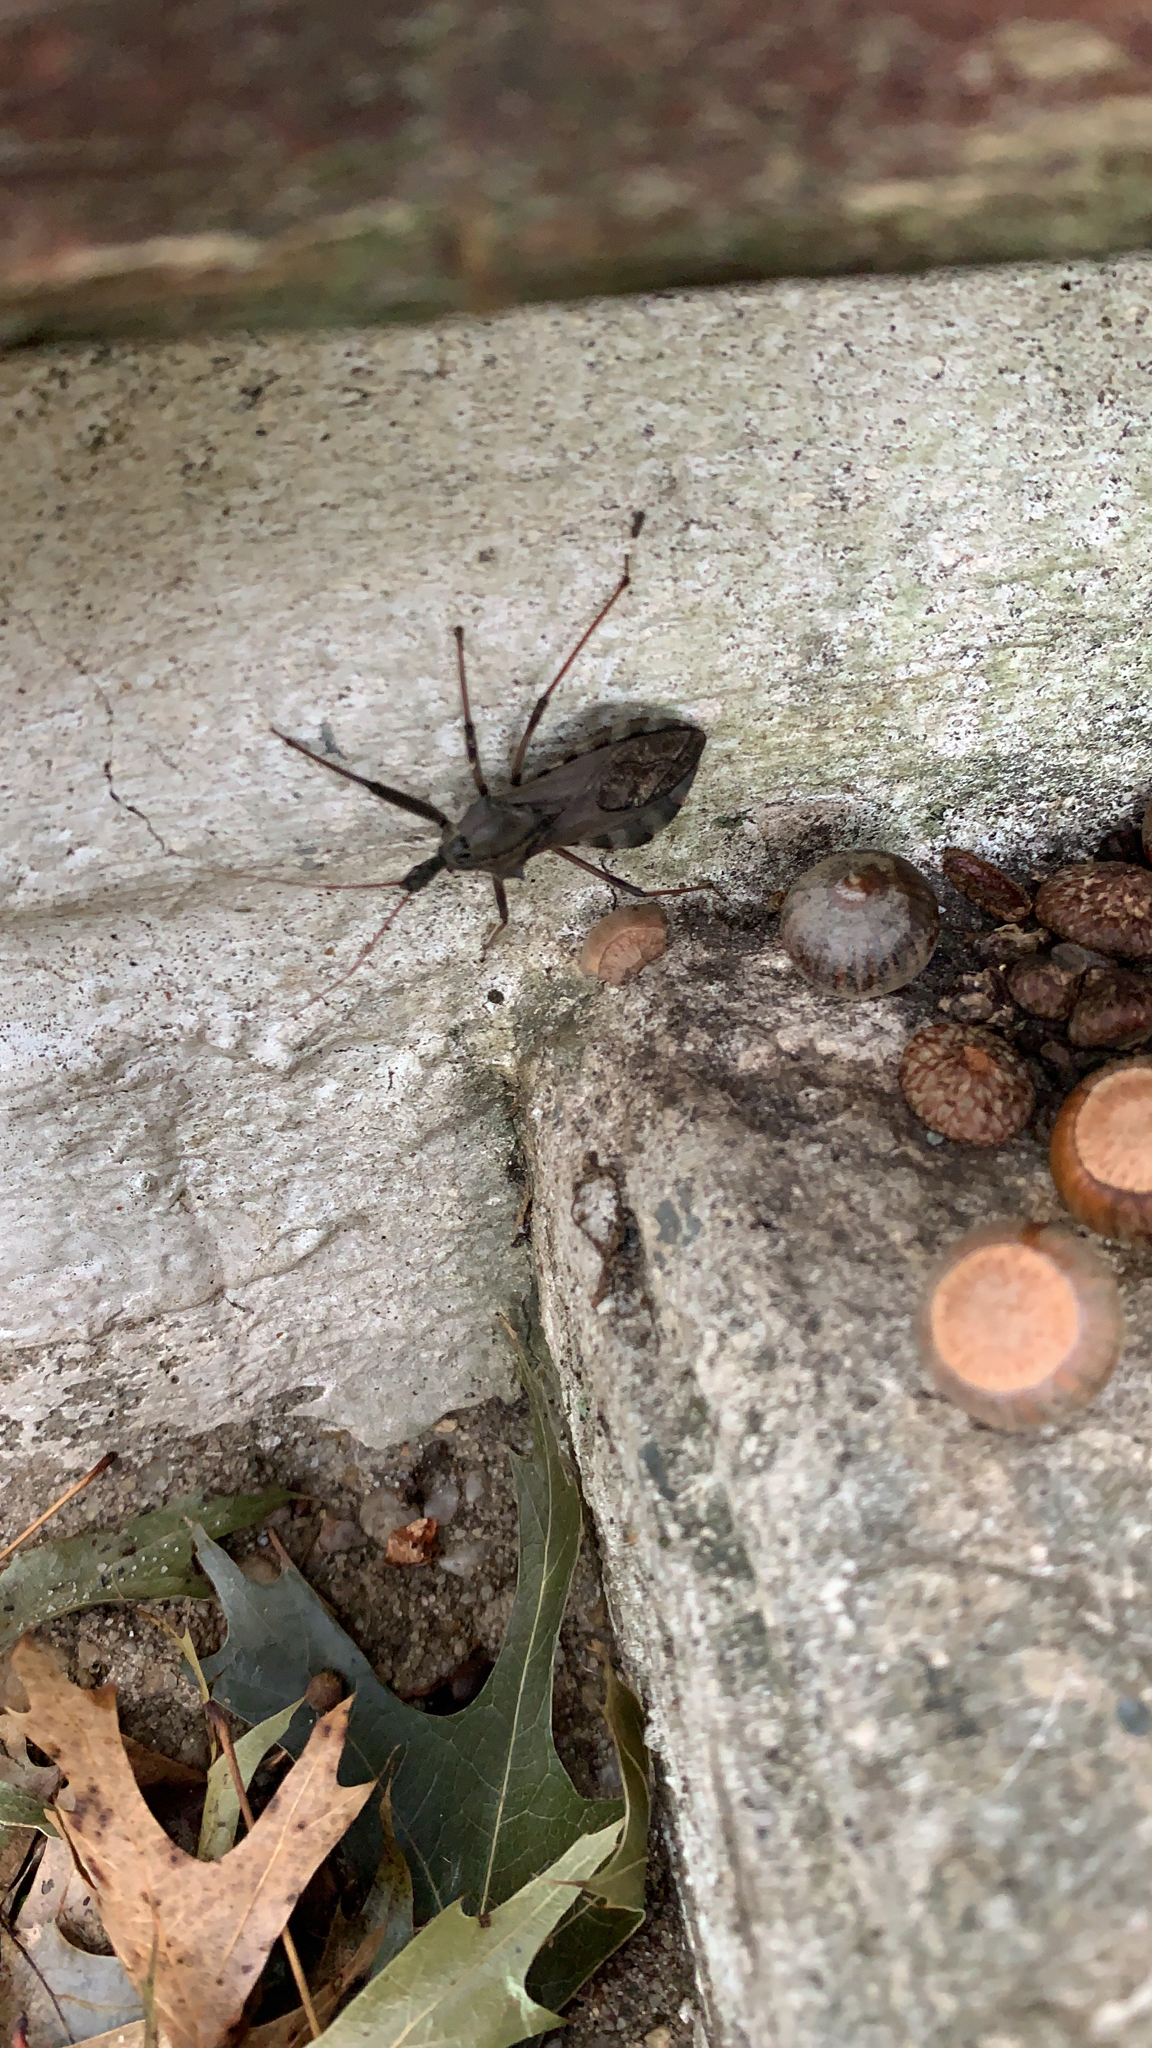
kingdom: Animalia
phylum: Arthropoda
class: Insecta
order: Hemiptera
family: Reduviidae
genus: Arilus
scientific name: Arilus cristatus
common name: North american wheel bug
